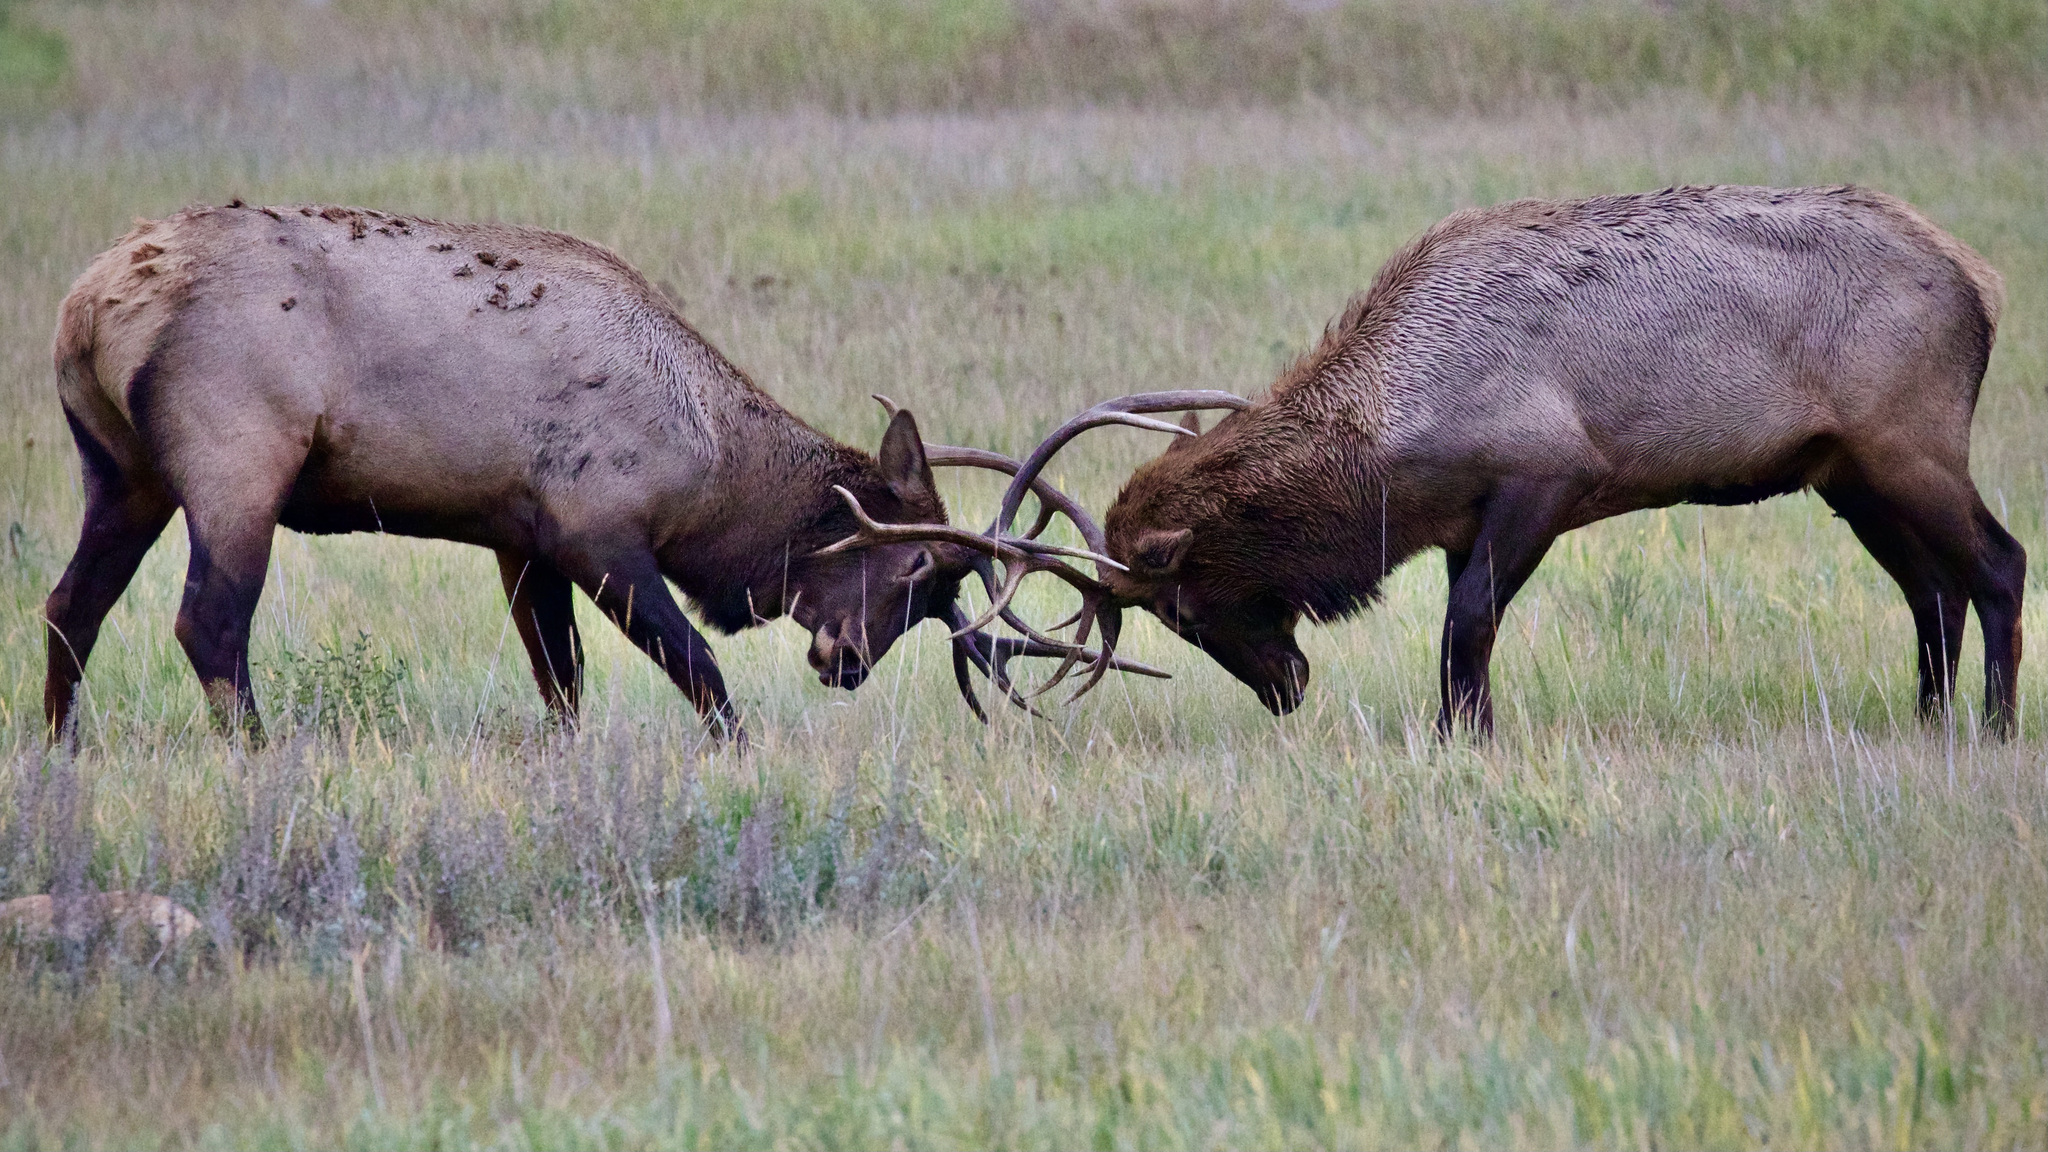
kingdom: Animalia
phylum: Chordata
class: Mammalia
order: Artiodactyla
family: Cervidae
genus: Cervus
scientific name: Cervus elaphus
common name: Red deer
